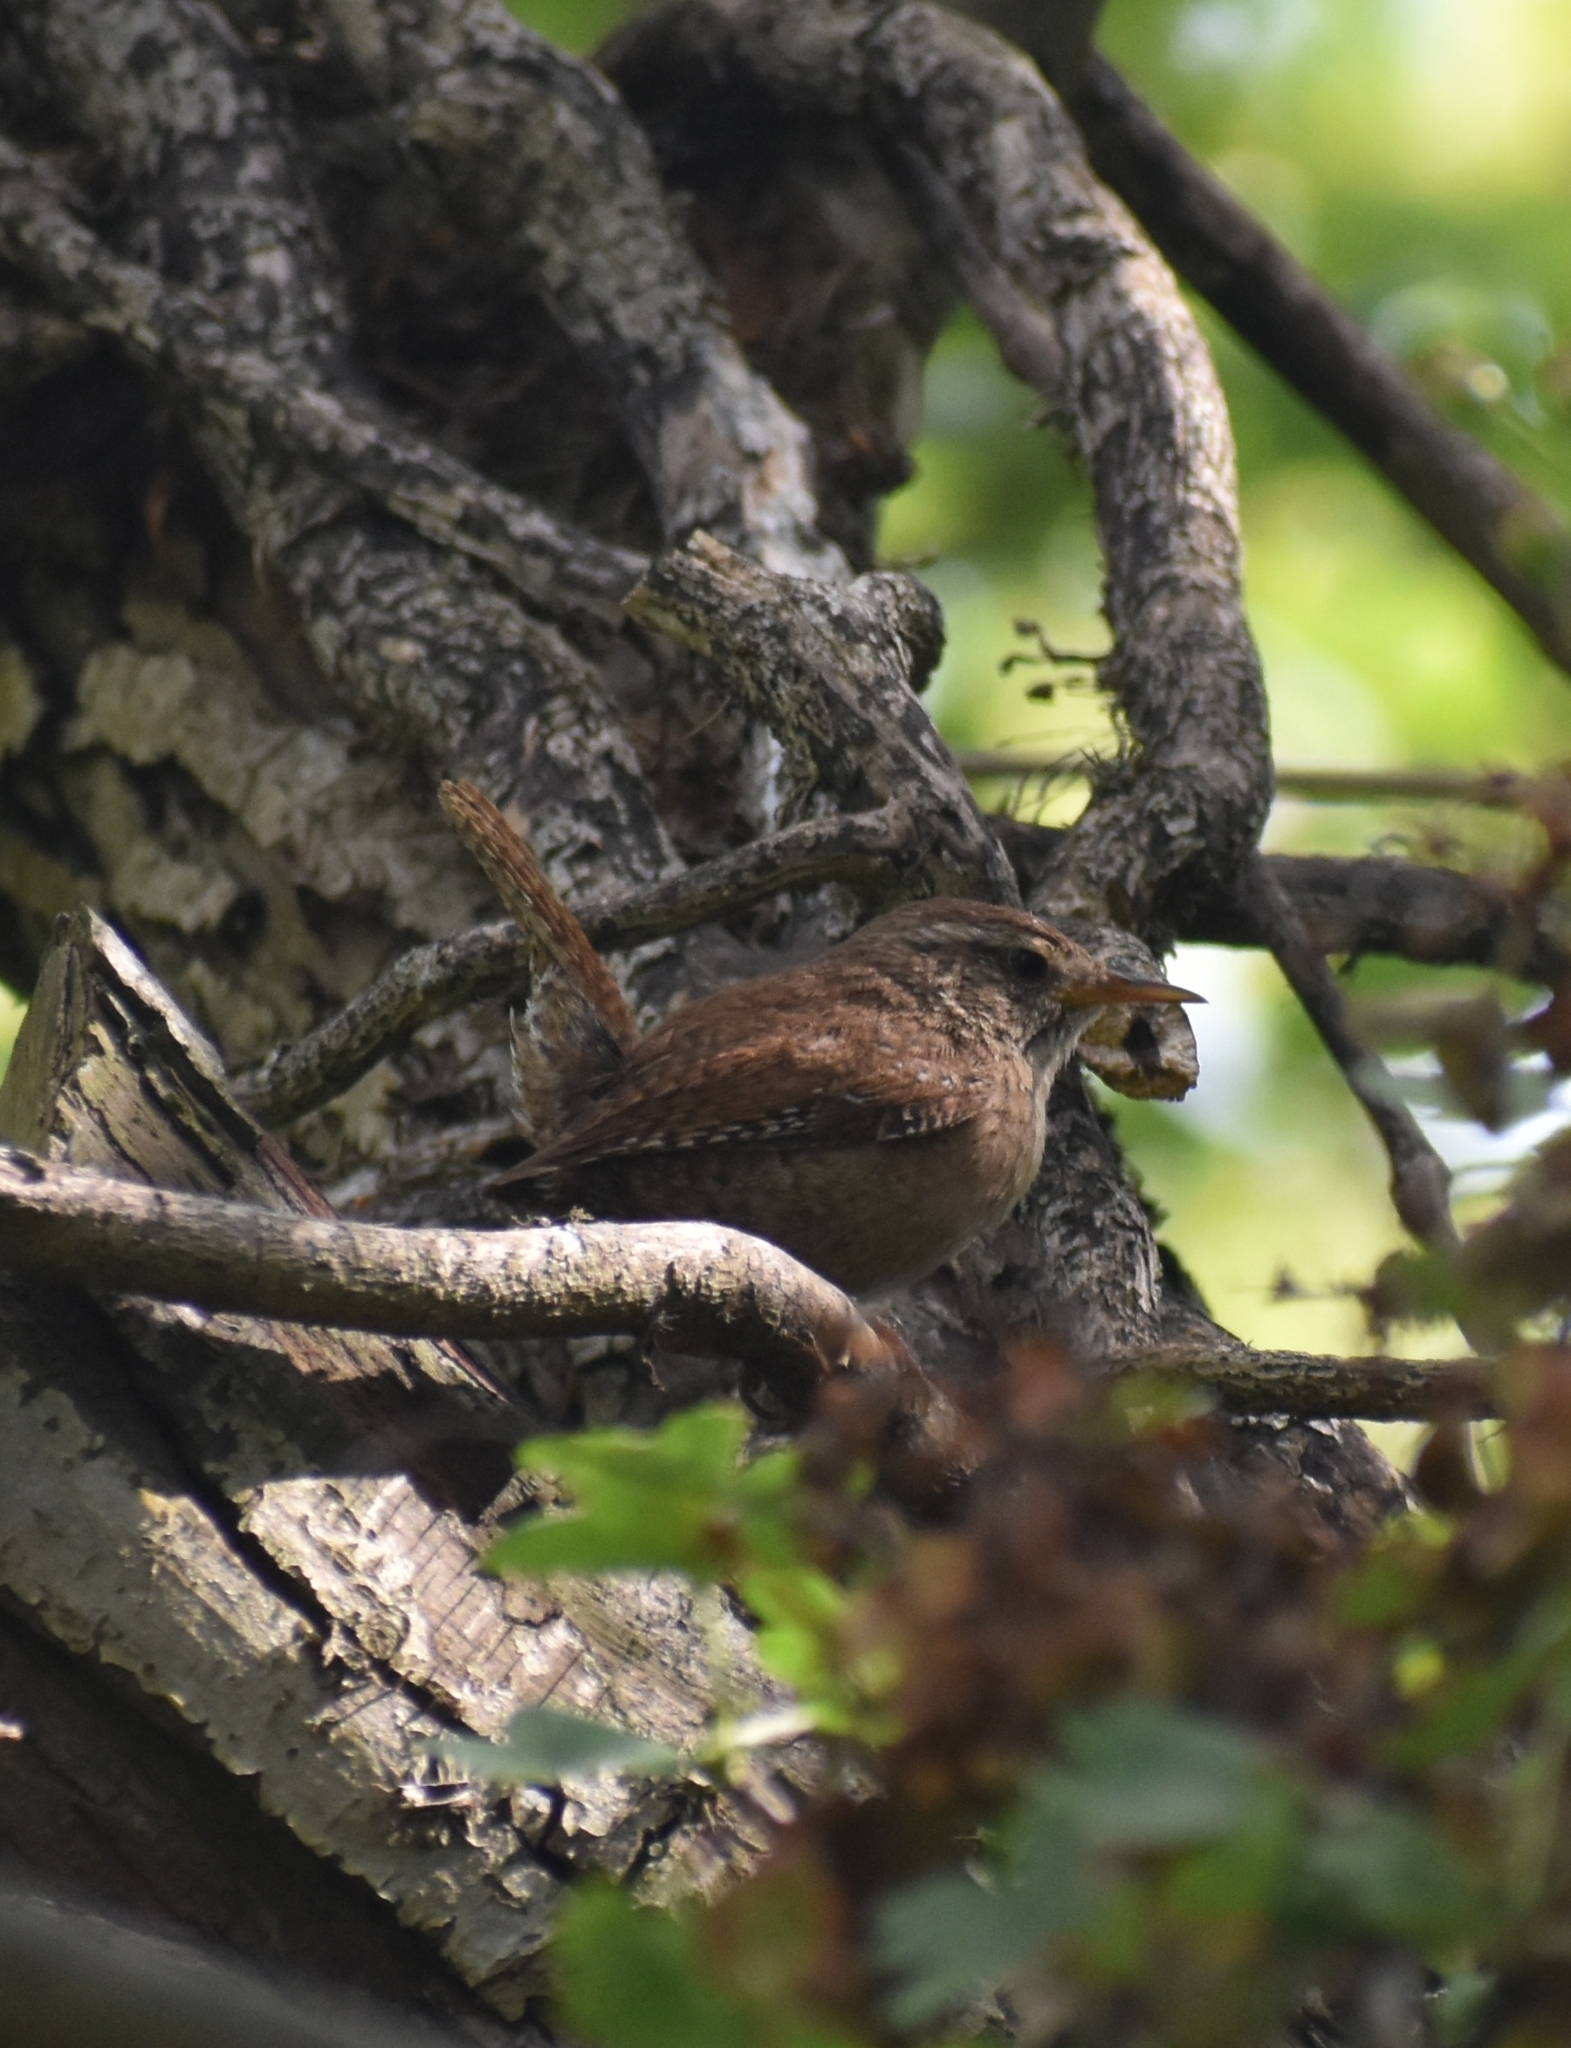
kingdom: Animalia
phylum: Chordata
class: Aves
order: Passeriformes
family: Troglodytidae
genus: Troglodytes
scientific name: Troglodytes troglodytes
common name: Eurasian wren
